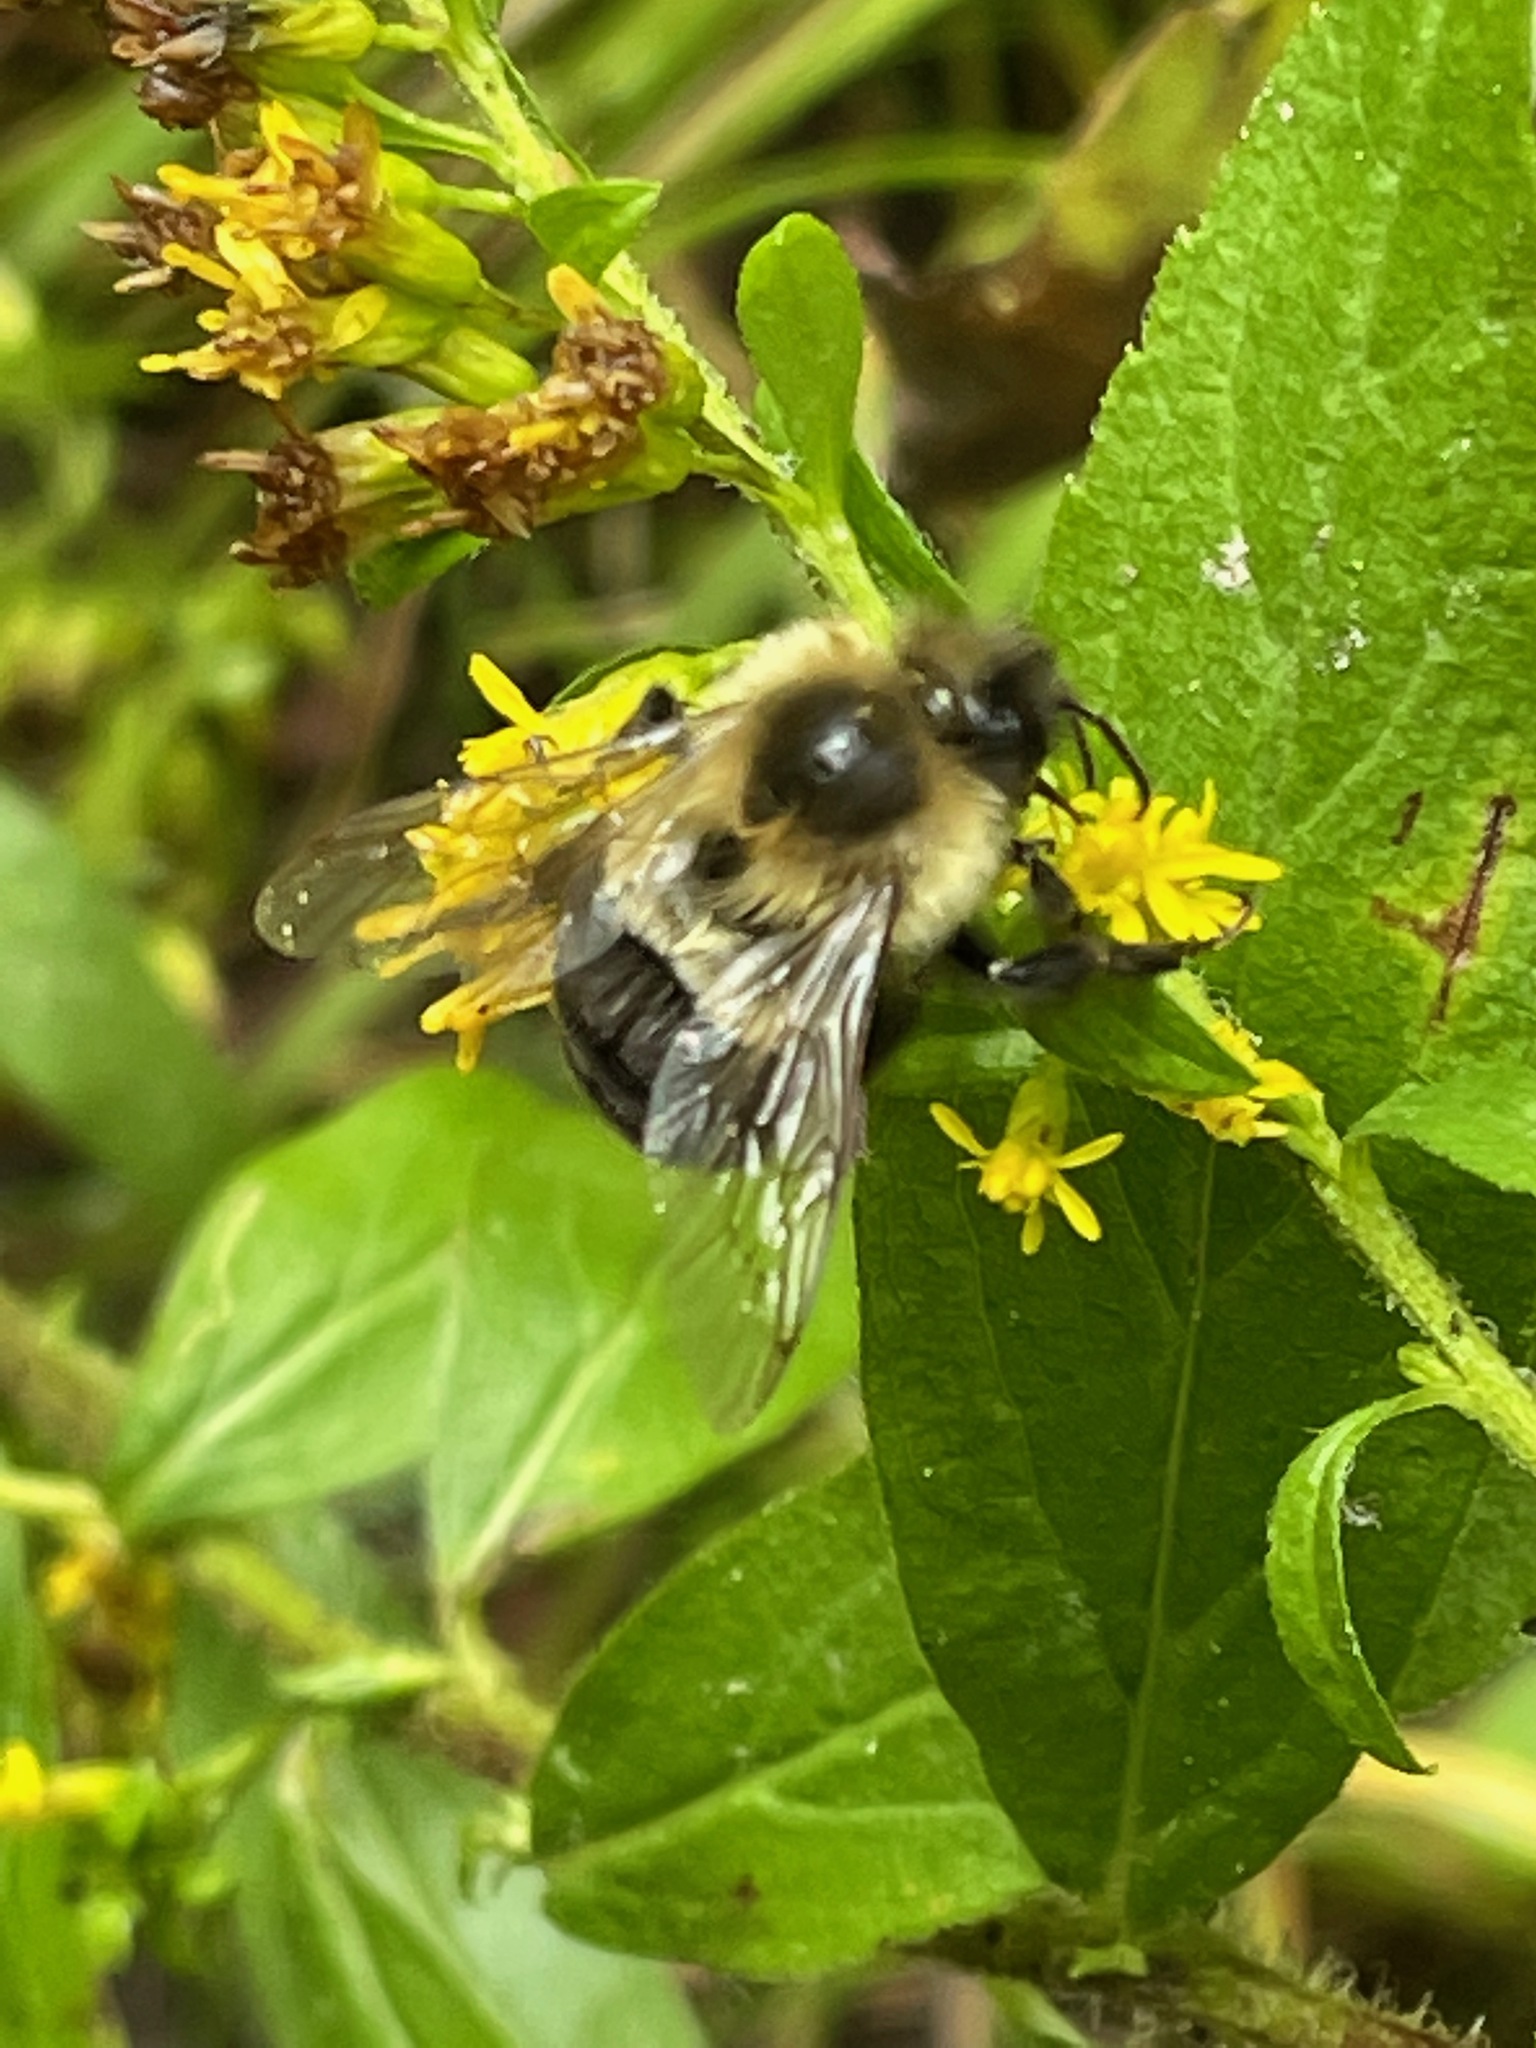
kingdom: Animalia
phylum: Arthropoda
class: Insecta
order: Hymenoptera
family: Apidae
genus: Bombus
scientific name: Bombus impatiens
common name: Common eastern bumble bee
